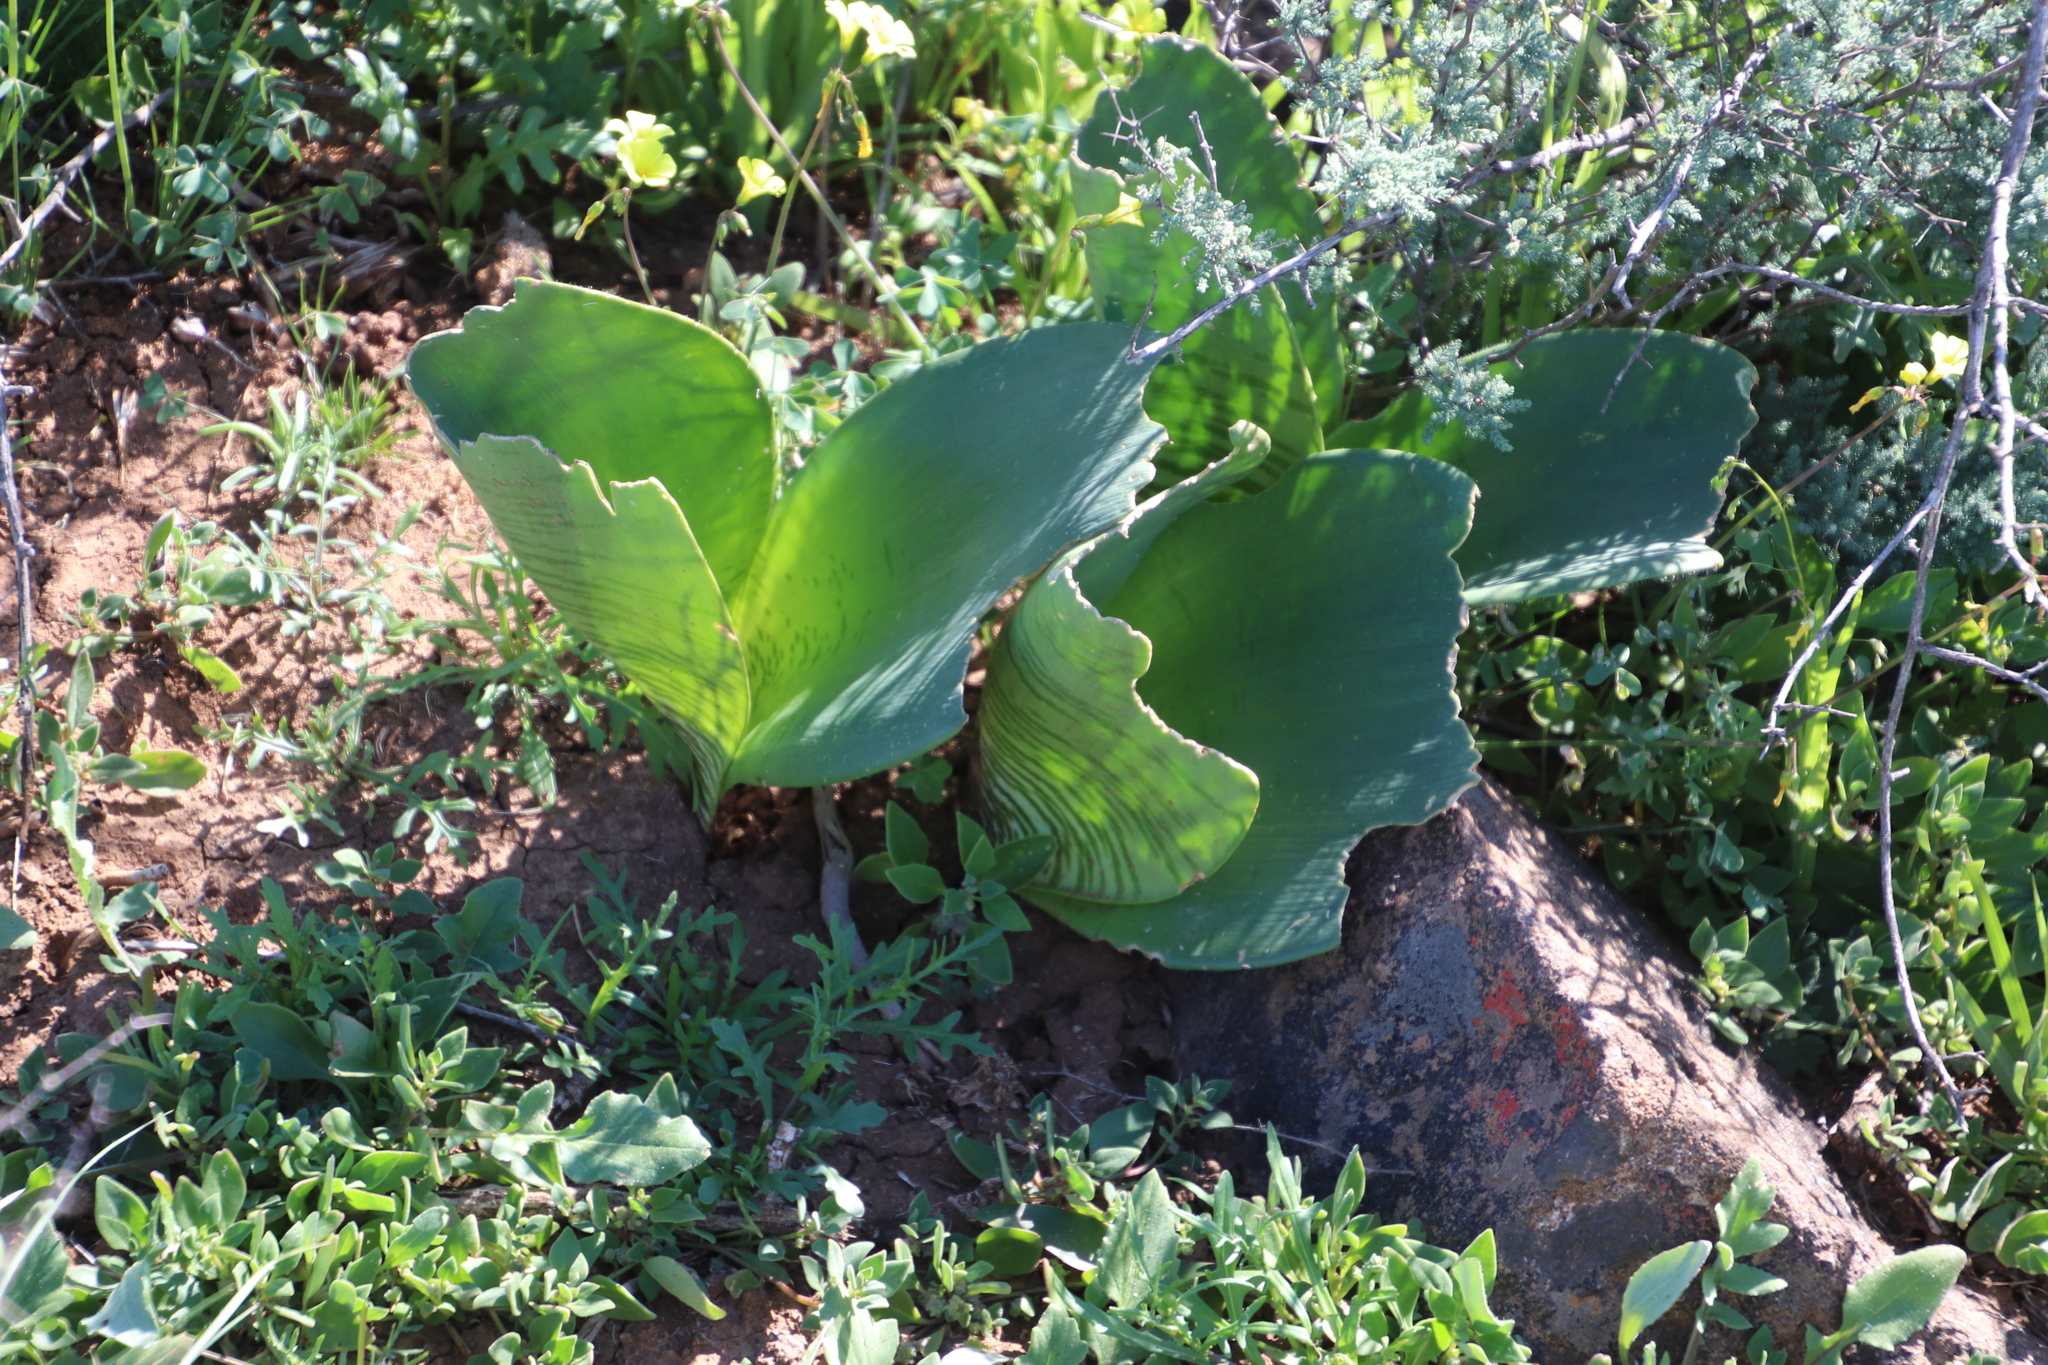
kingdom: Plantae
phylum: Tracheophyta
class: Liliopsida
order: Asparagales
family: Amaryllidaceae
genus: Haemanthus
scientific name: Haemanthus coccineus
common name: Cape-tulip
